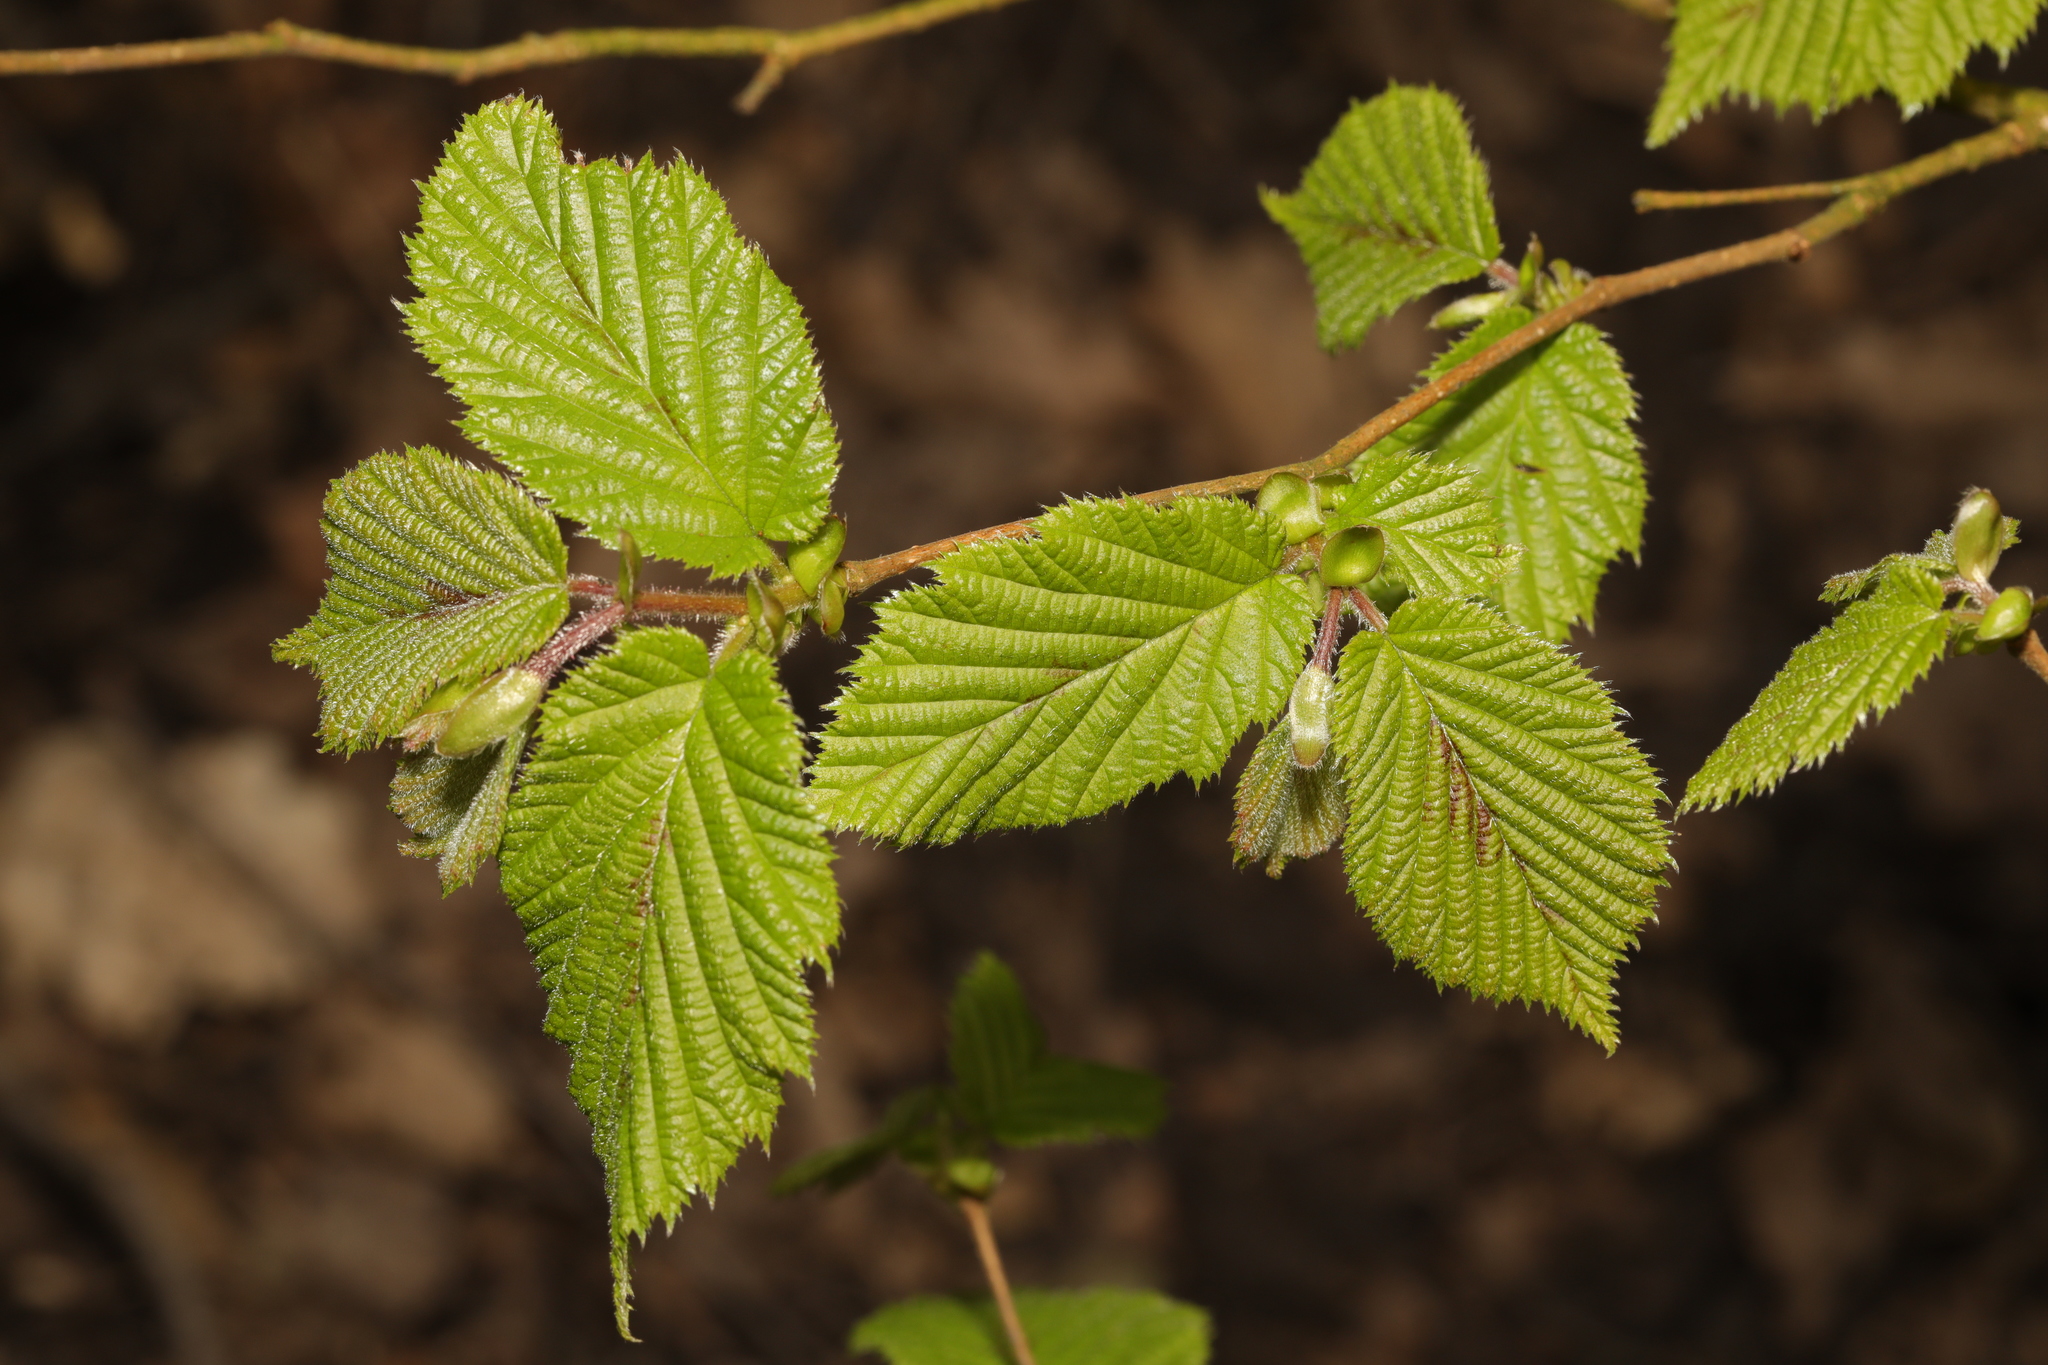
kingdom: Plantae
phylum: Tracheophyta
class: Magnoliopsida
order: Fagales
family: Betulaceae
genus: Corylus
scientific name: Corylus avellana
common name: European hazel
